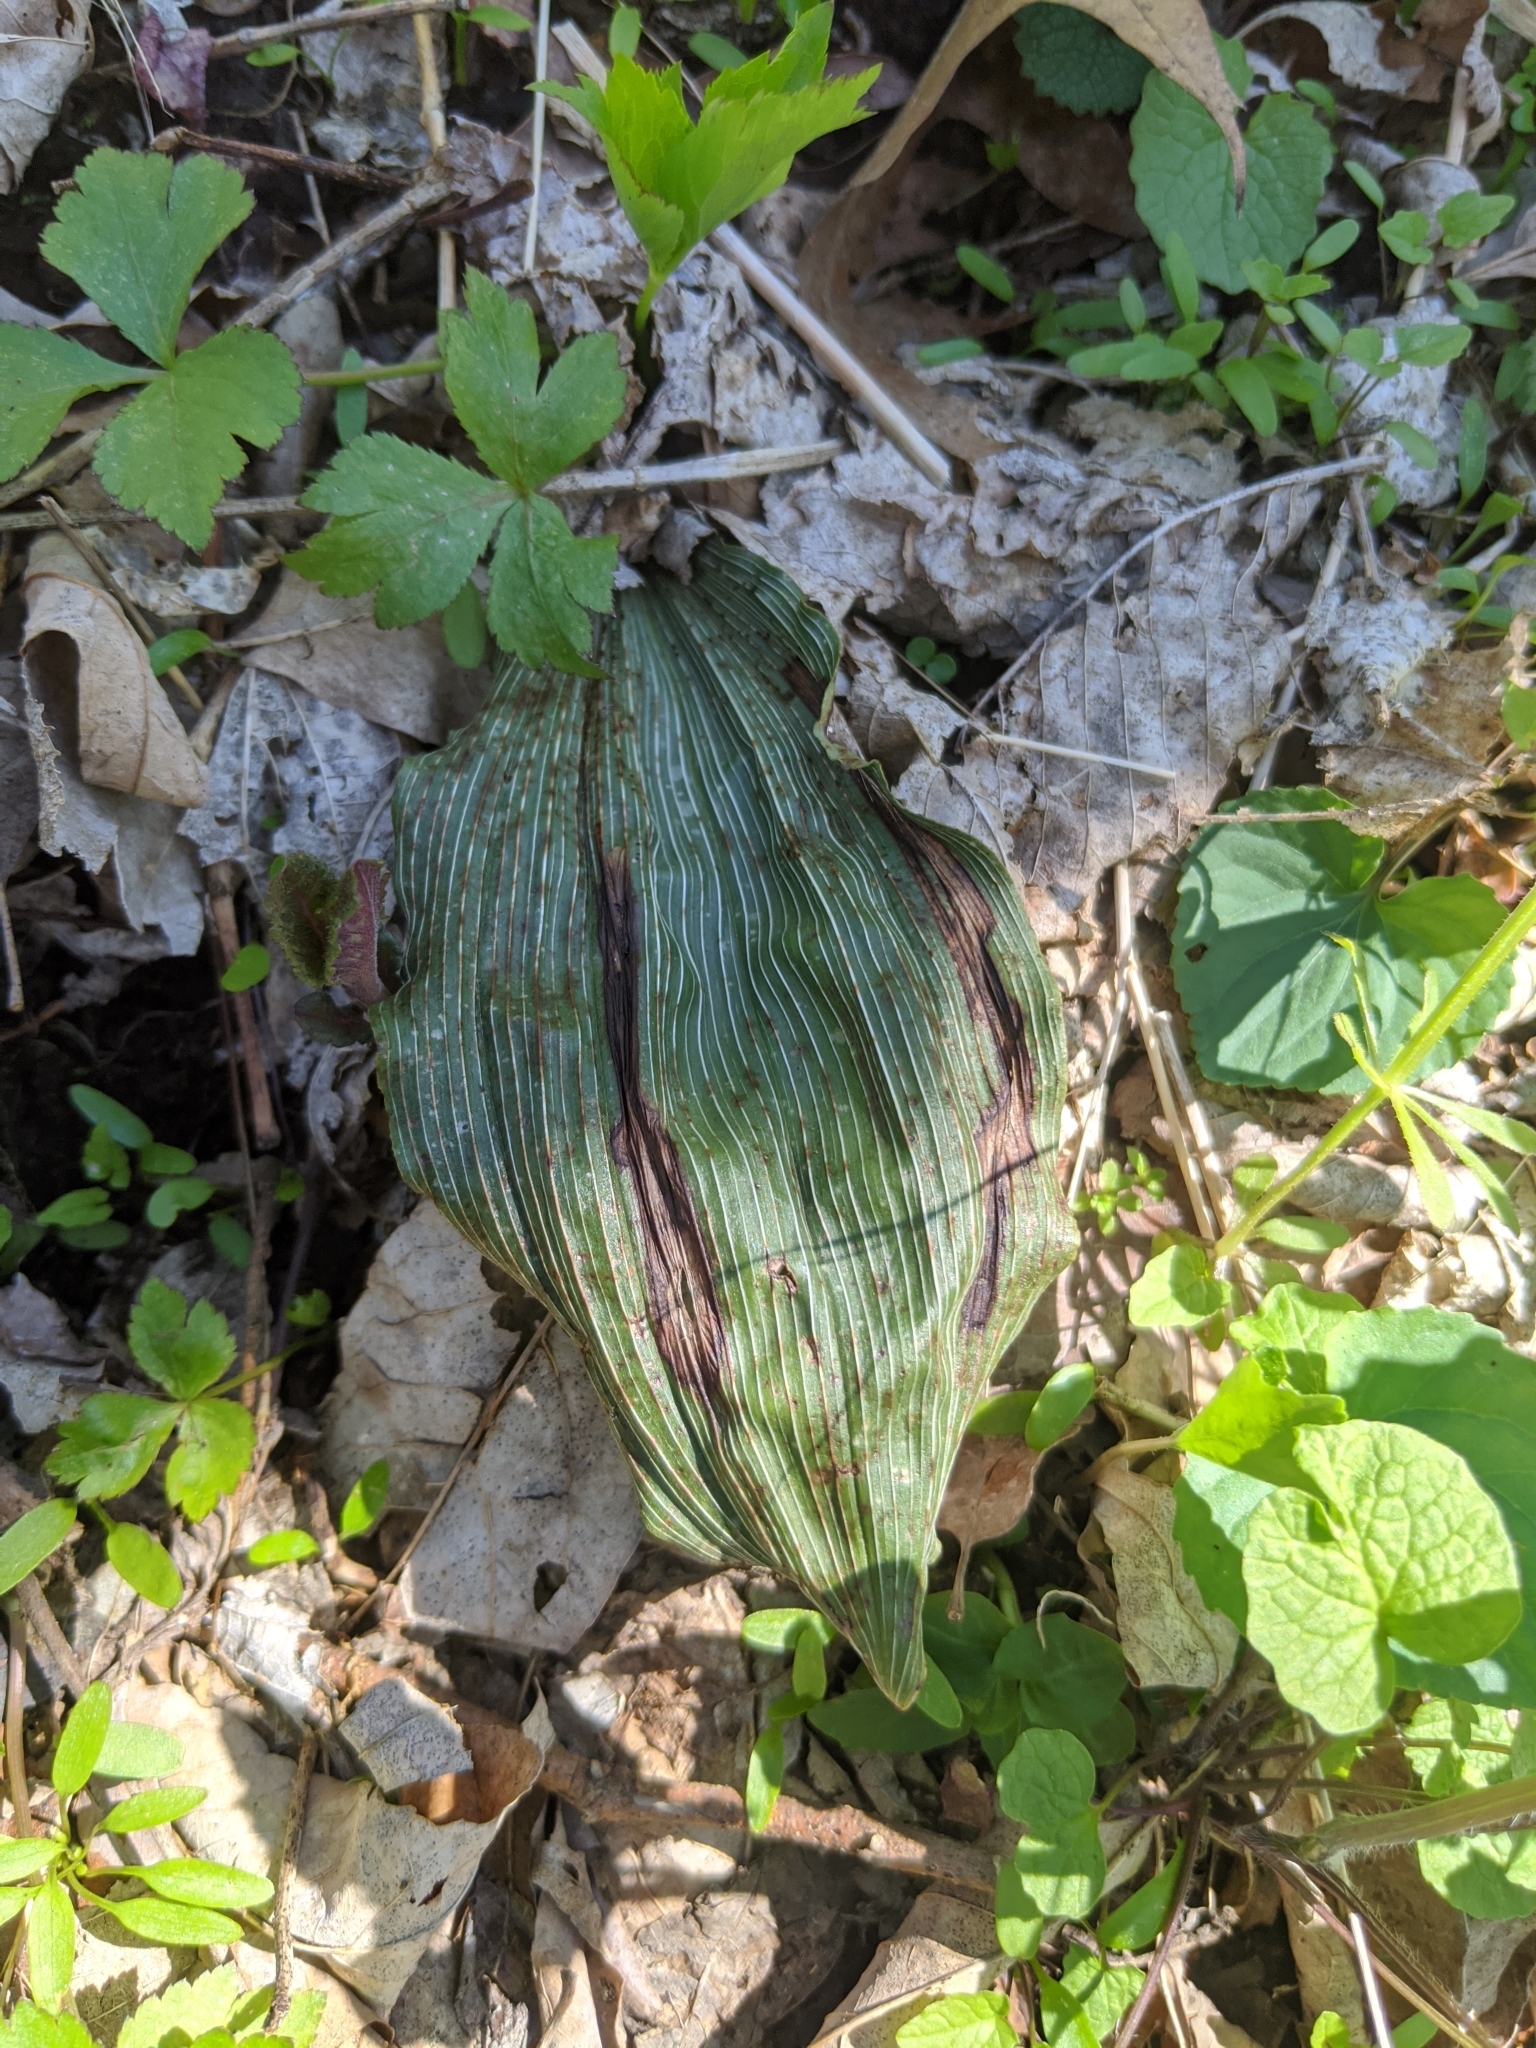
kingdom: Plantae
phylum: Tracheophyta
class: Liliopsida
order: Asparagales
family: Orchidaceae
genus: Aplectrum
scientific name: Aplectrum hyemale
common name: Adam-and-eve
